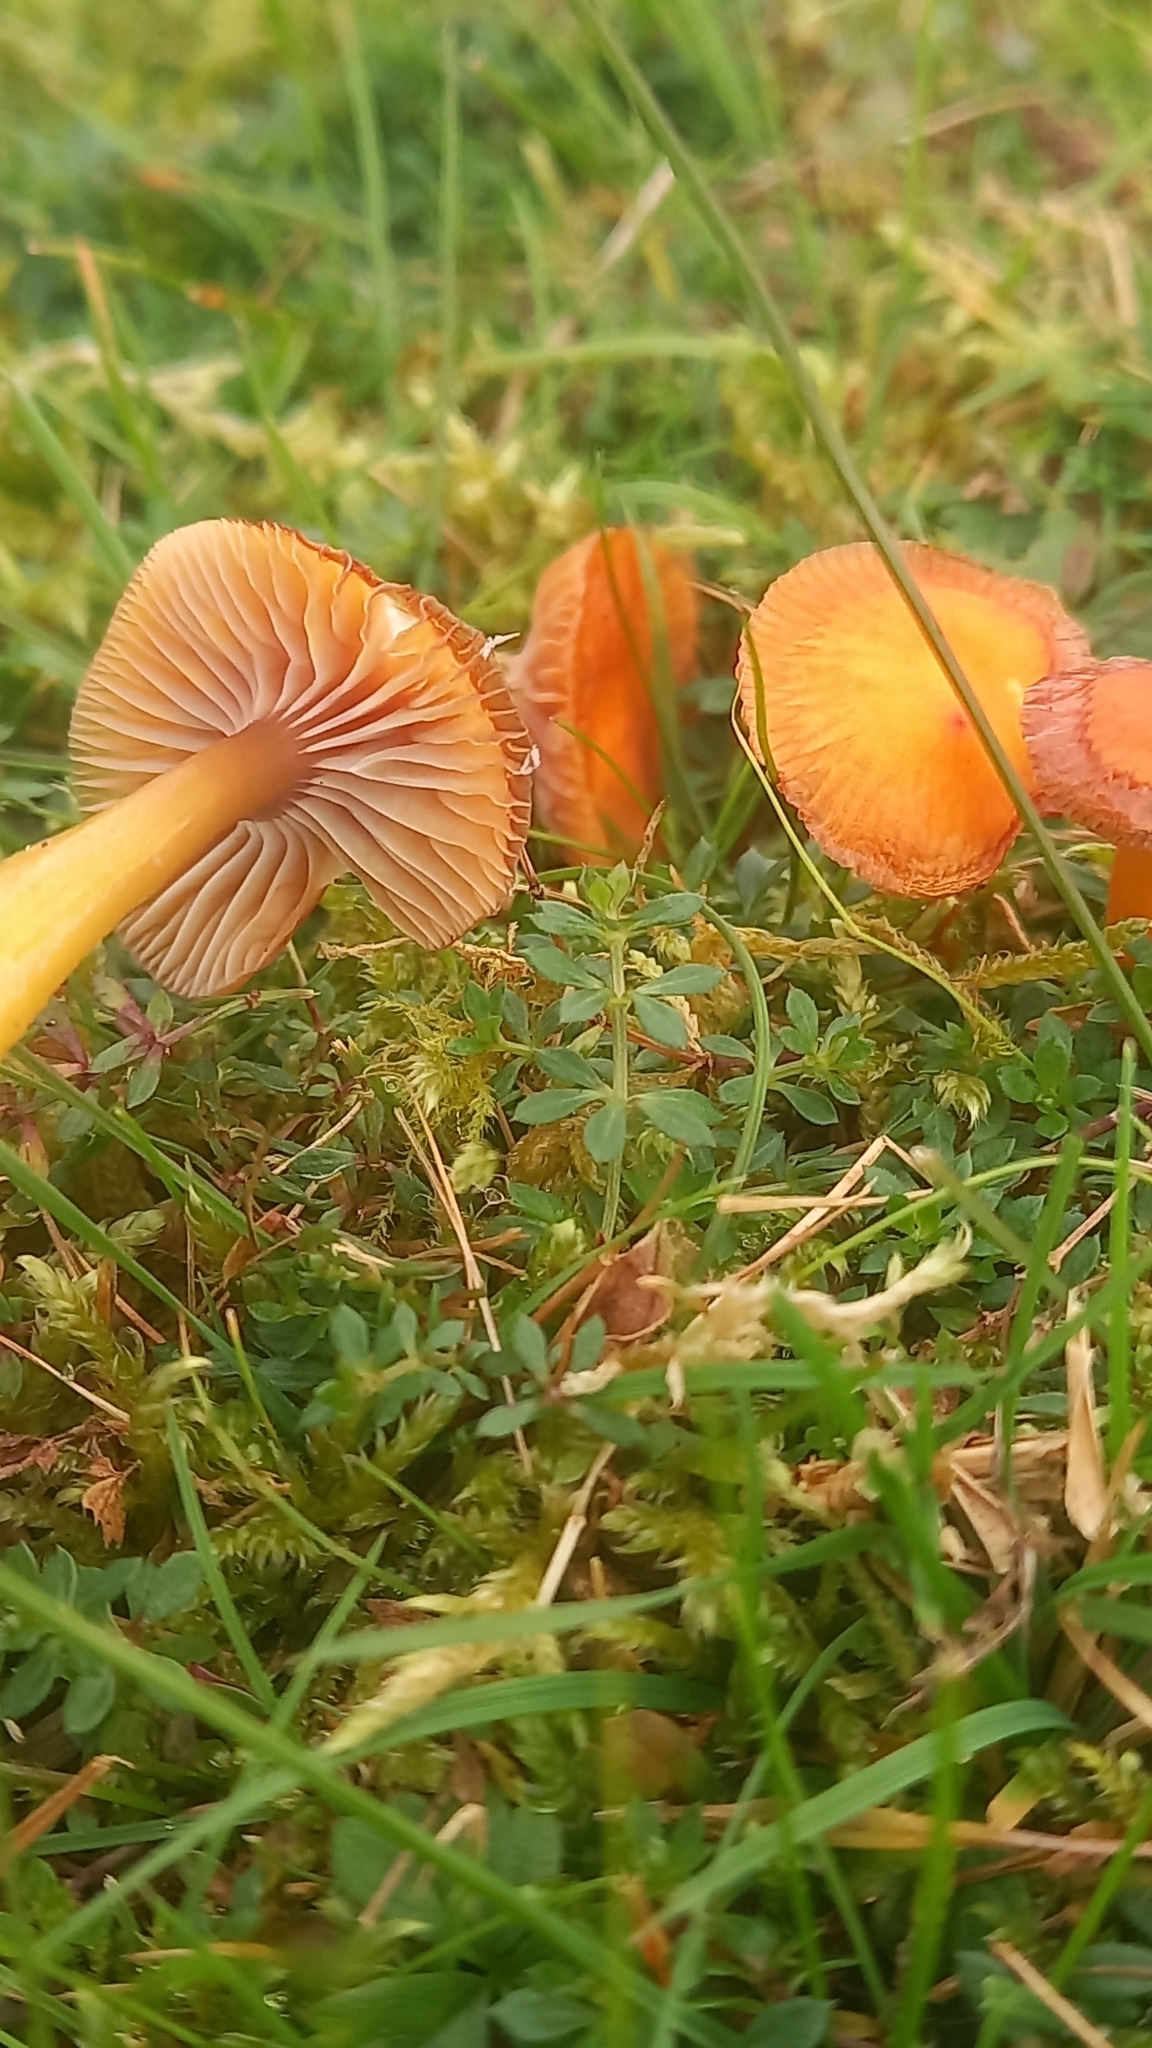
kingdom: Fungi
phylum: Basidiomycota
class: Agaricomycetes
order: Agaricales
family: Hygrophoraceae
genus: Gliophorus
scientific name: Gliophorus laetus
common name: Heath waxcap
